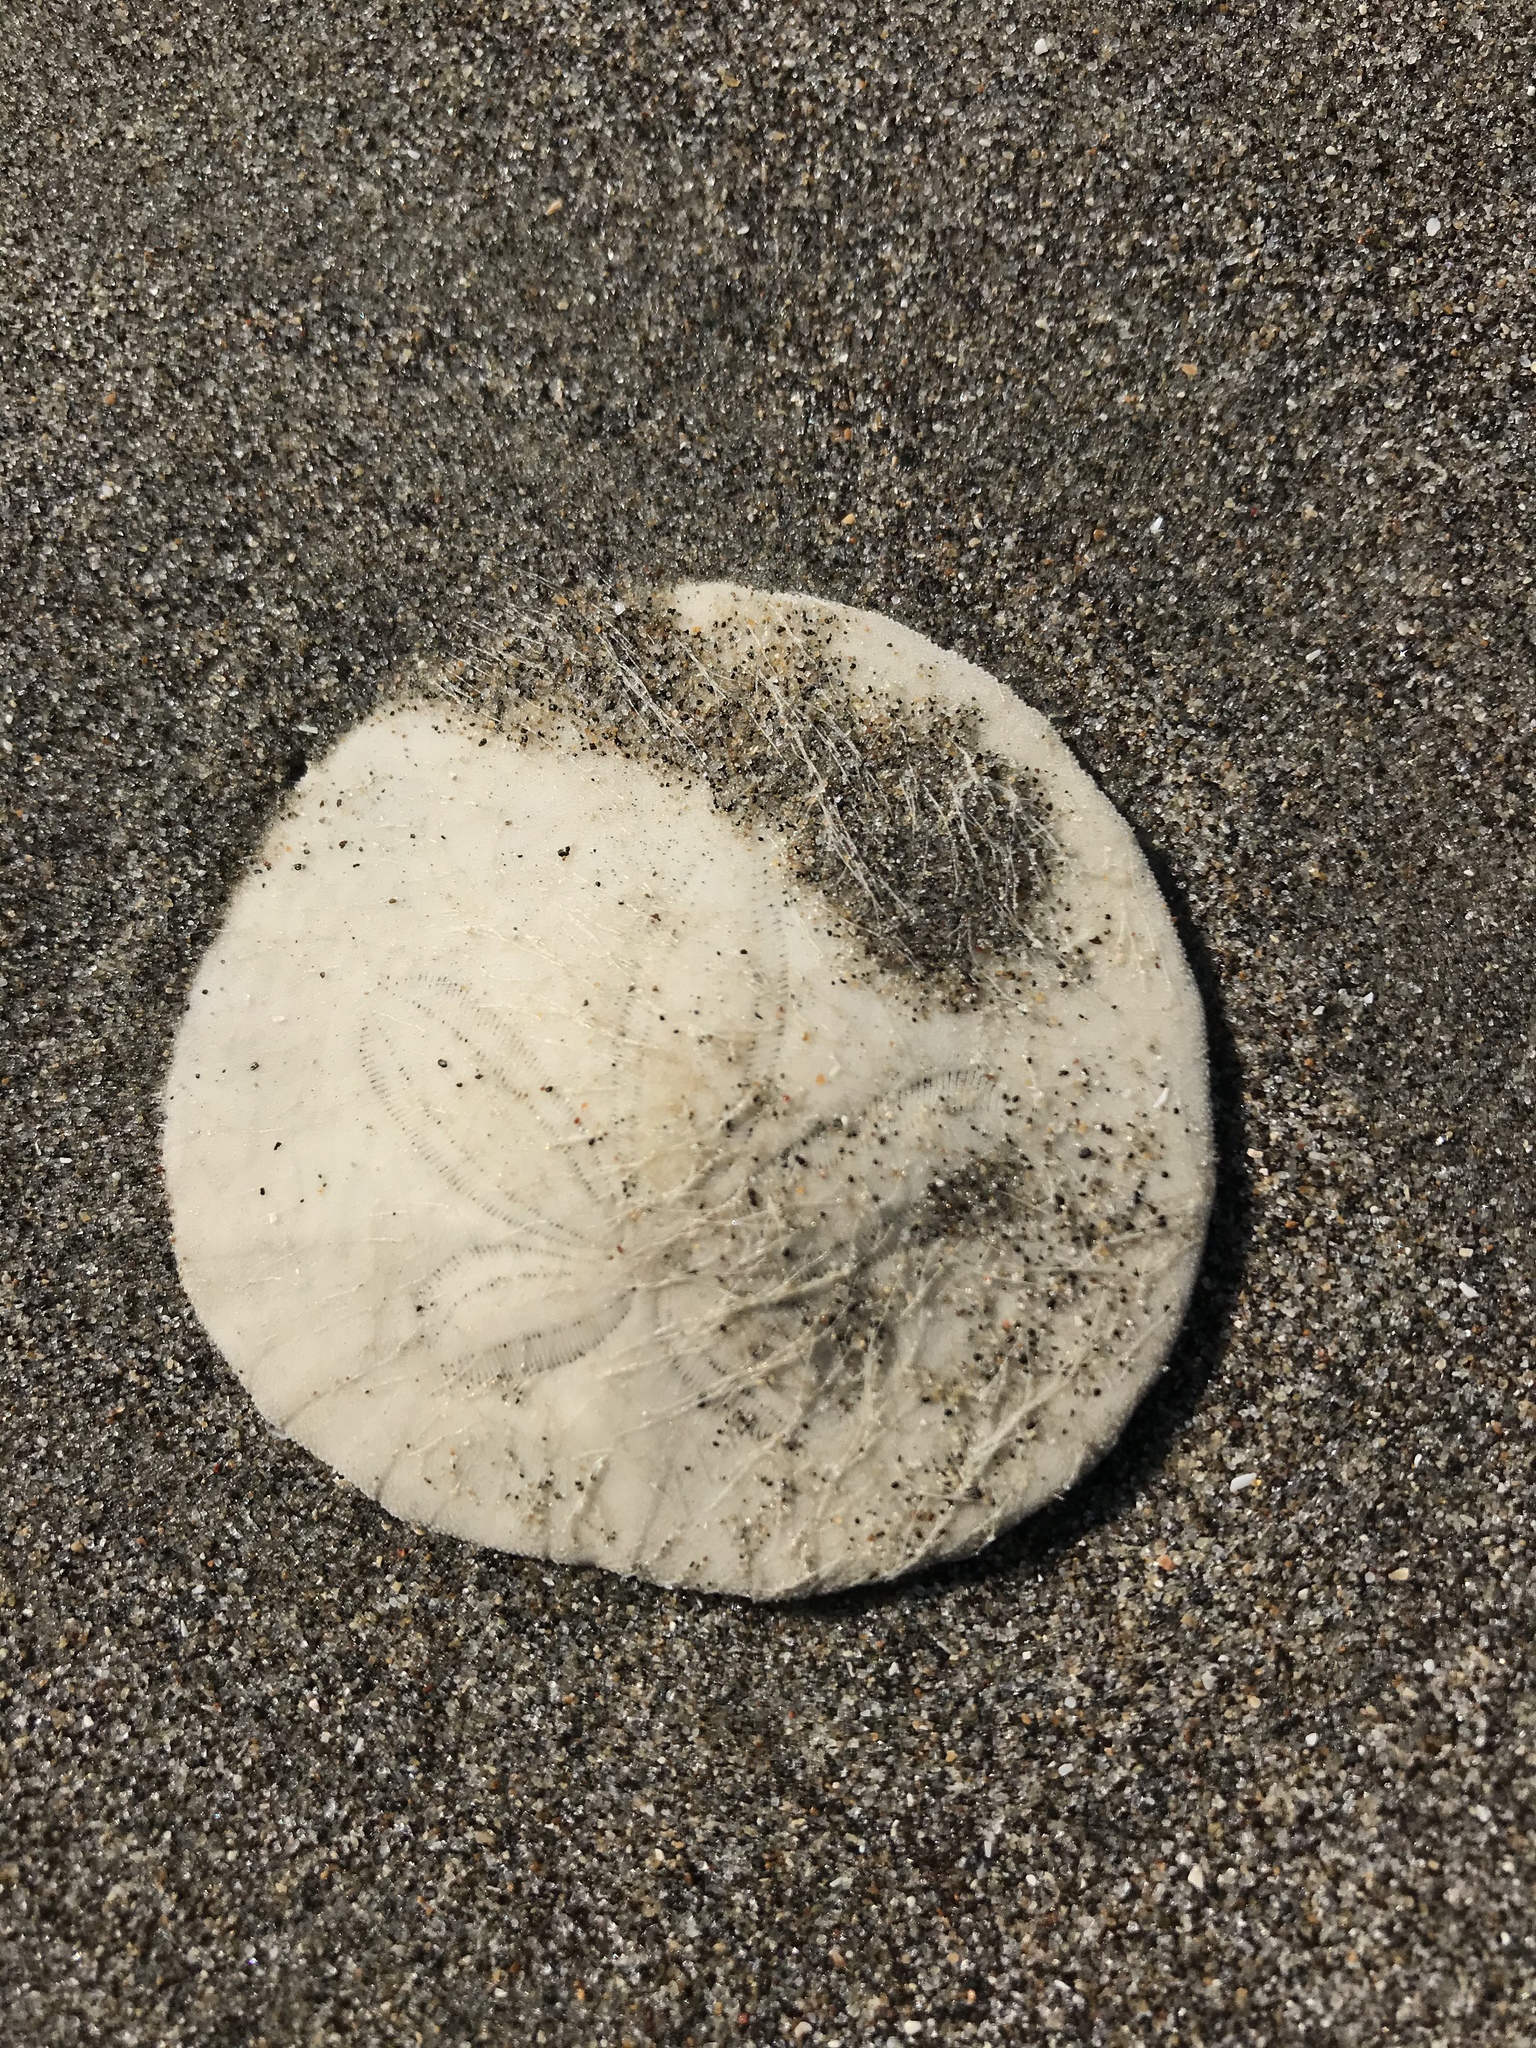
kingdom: Animalia
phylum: Echinodermata
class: Echinoidea
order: Echinolampadacea
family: Dendrasteridae
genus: Dendraster
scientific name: Dendraster excentricus
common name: Eccentric sand dollar sea urchin
